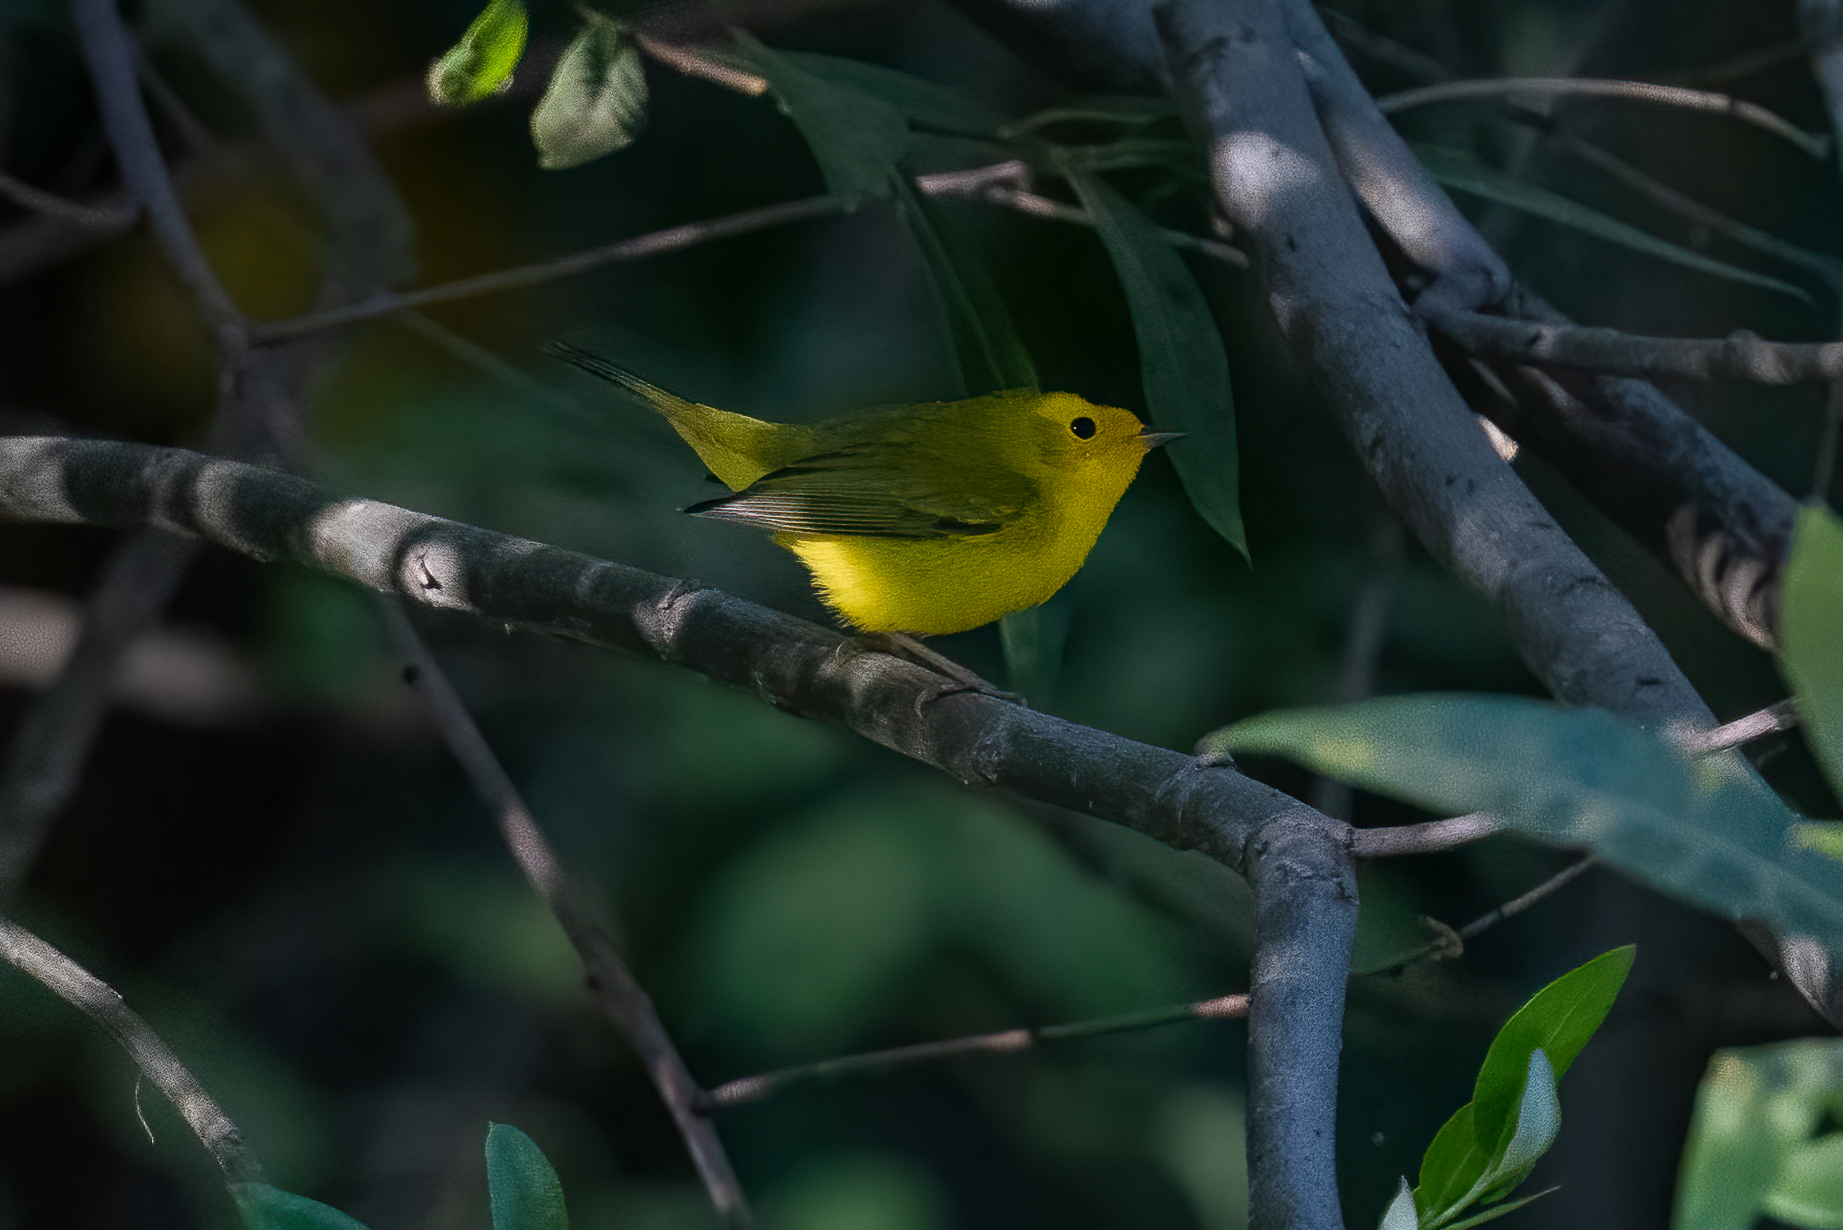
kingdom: Animalia
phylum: Chordata
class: Aves
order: Passeriformes
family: Parulidae
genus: Cardellina
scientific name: Cardellina pusilla
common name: Wilson's warbler
